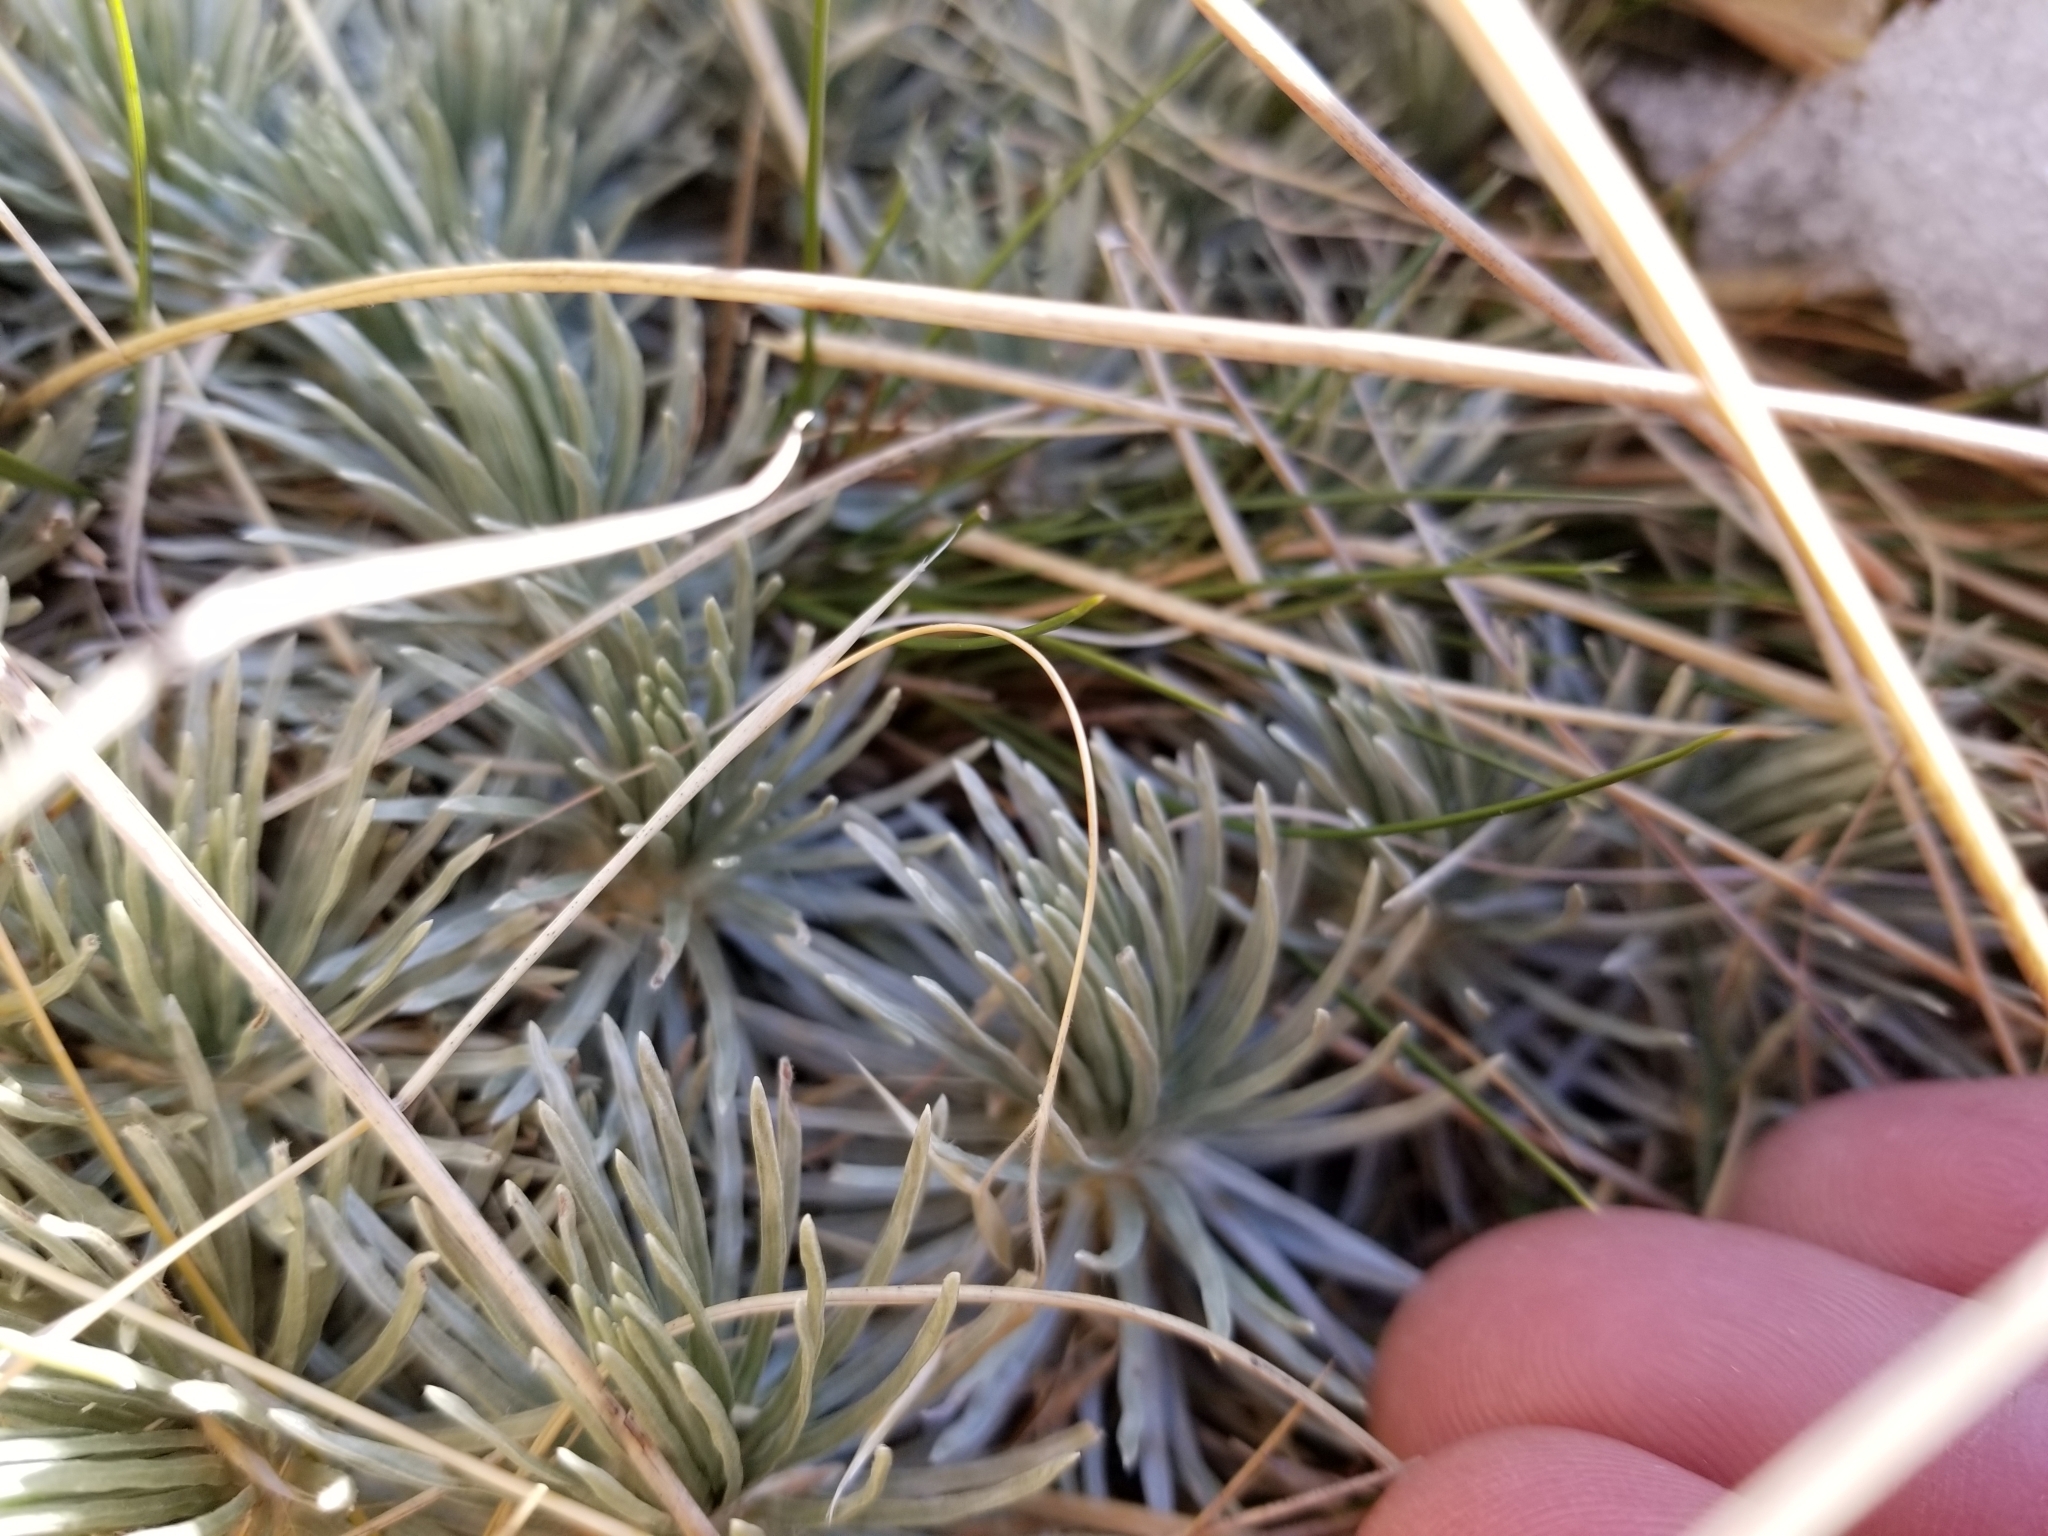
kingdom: Plantae
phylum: Tracheophyta
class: Magnoliopsida
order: Asterales
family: Asteraceae
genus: Celmisia
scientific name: Celmisia sessiliflora
